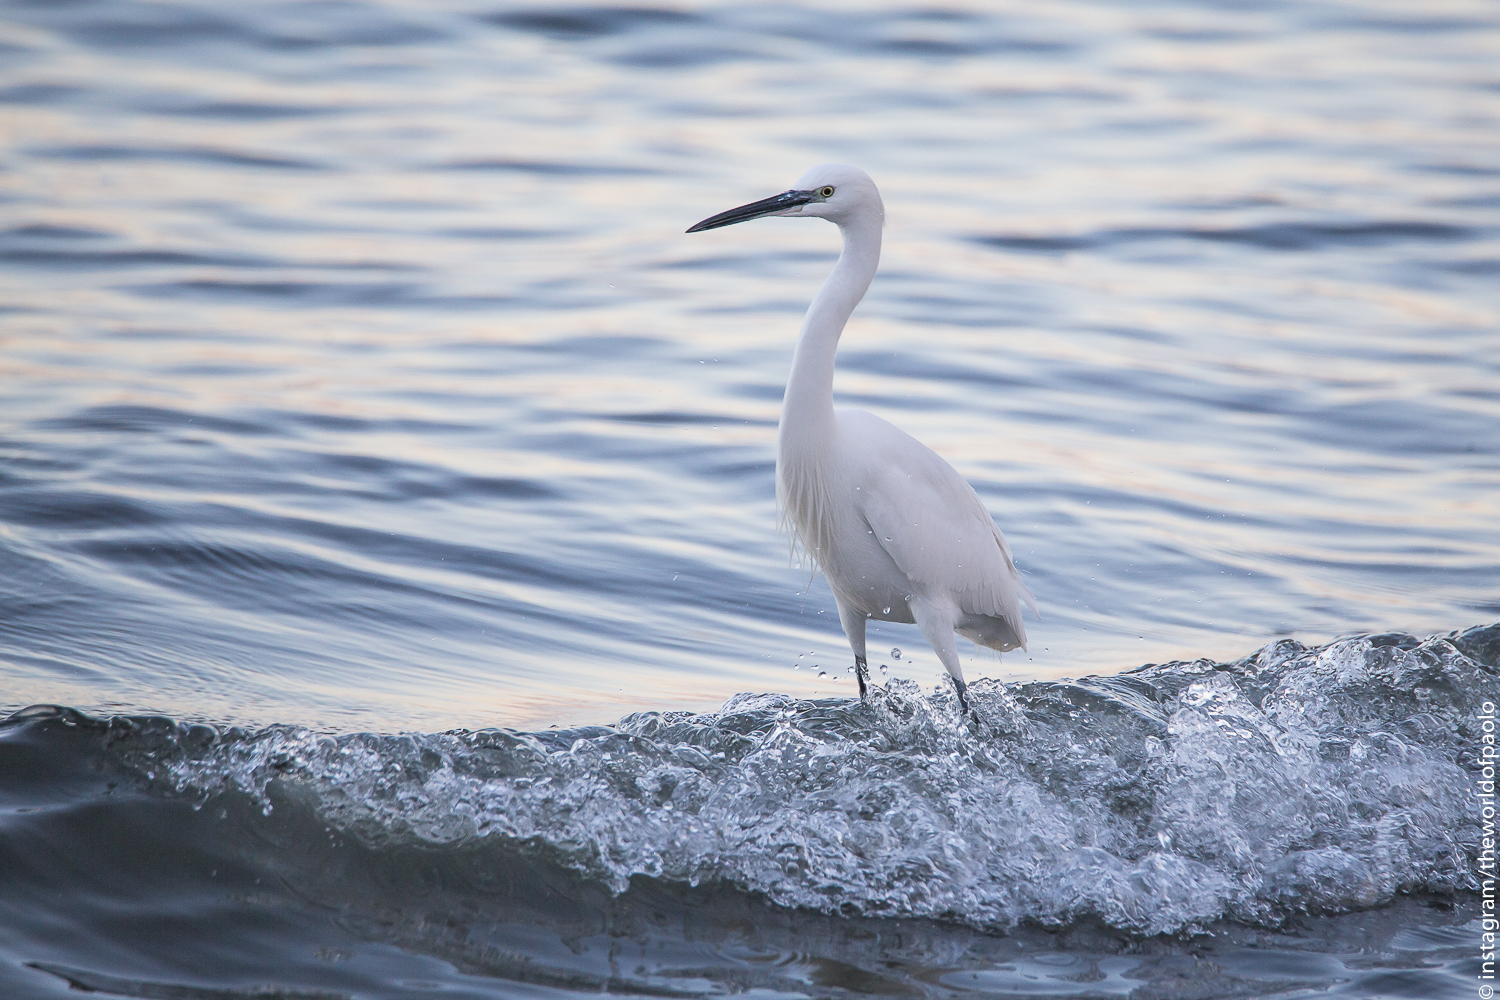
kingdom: Animalia
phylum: Chordata
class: Aves
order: Pelecaniformes
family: Ardeidae
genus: Egretta
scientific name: Egretta garzetta
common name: Little egret
